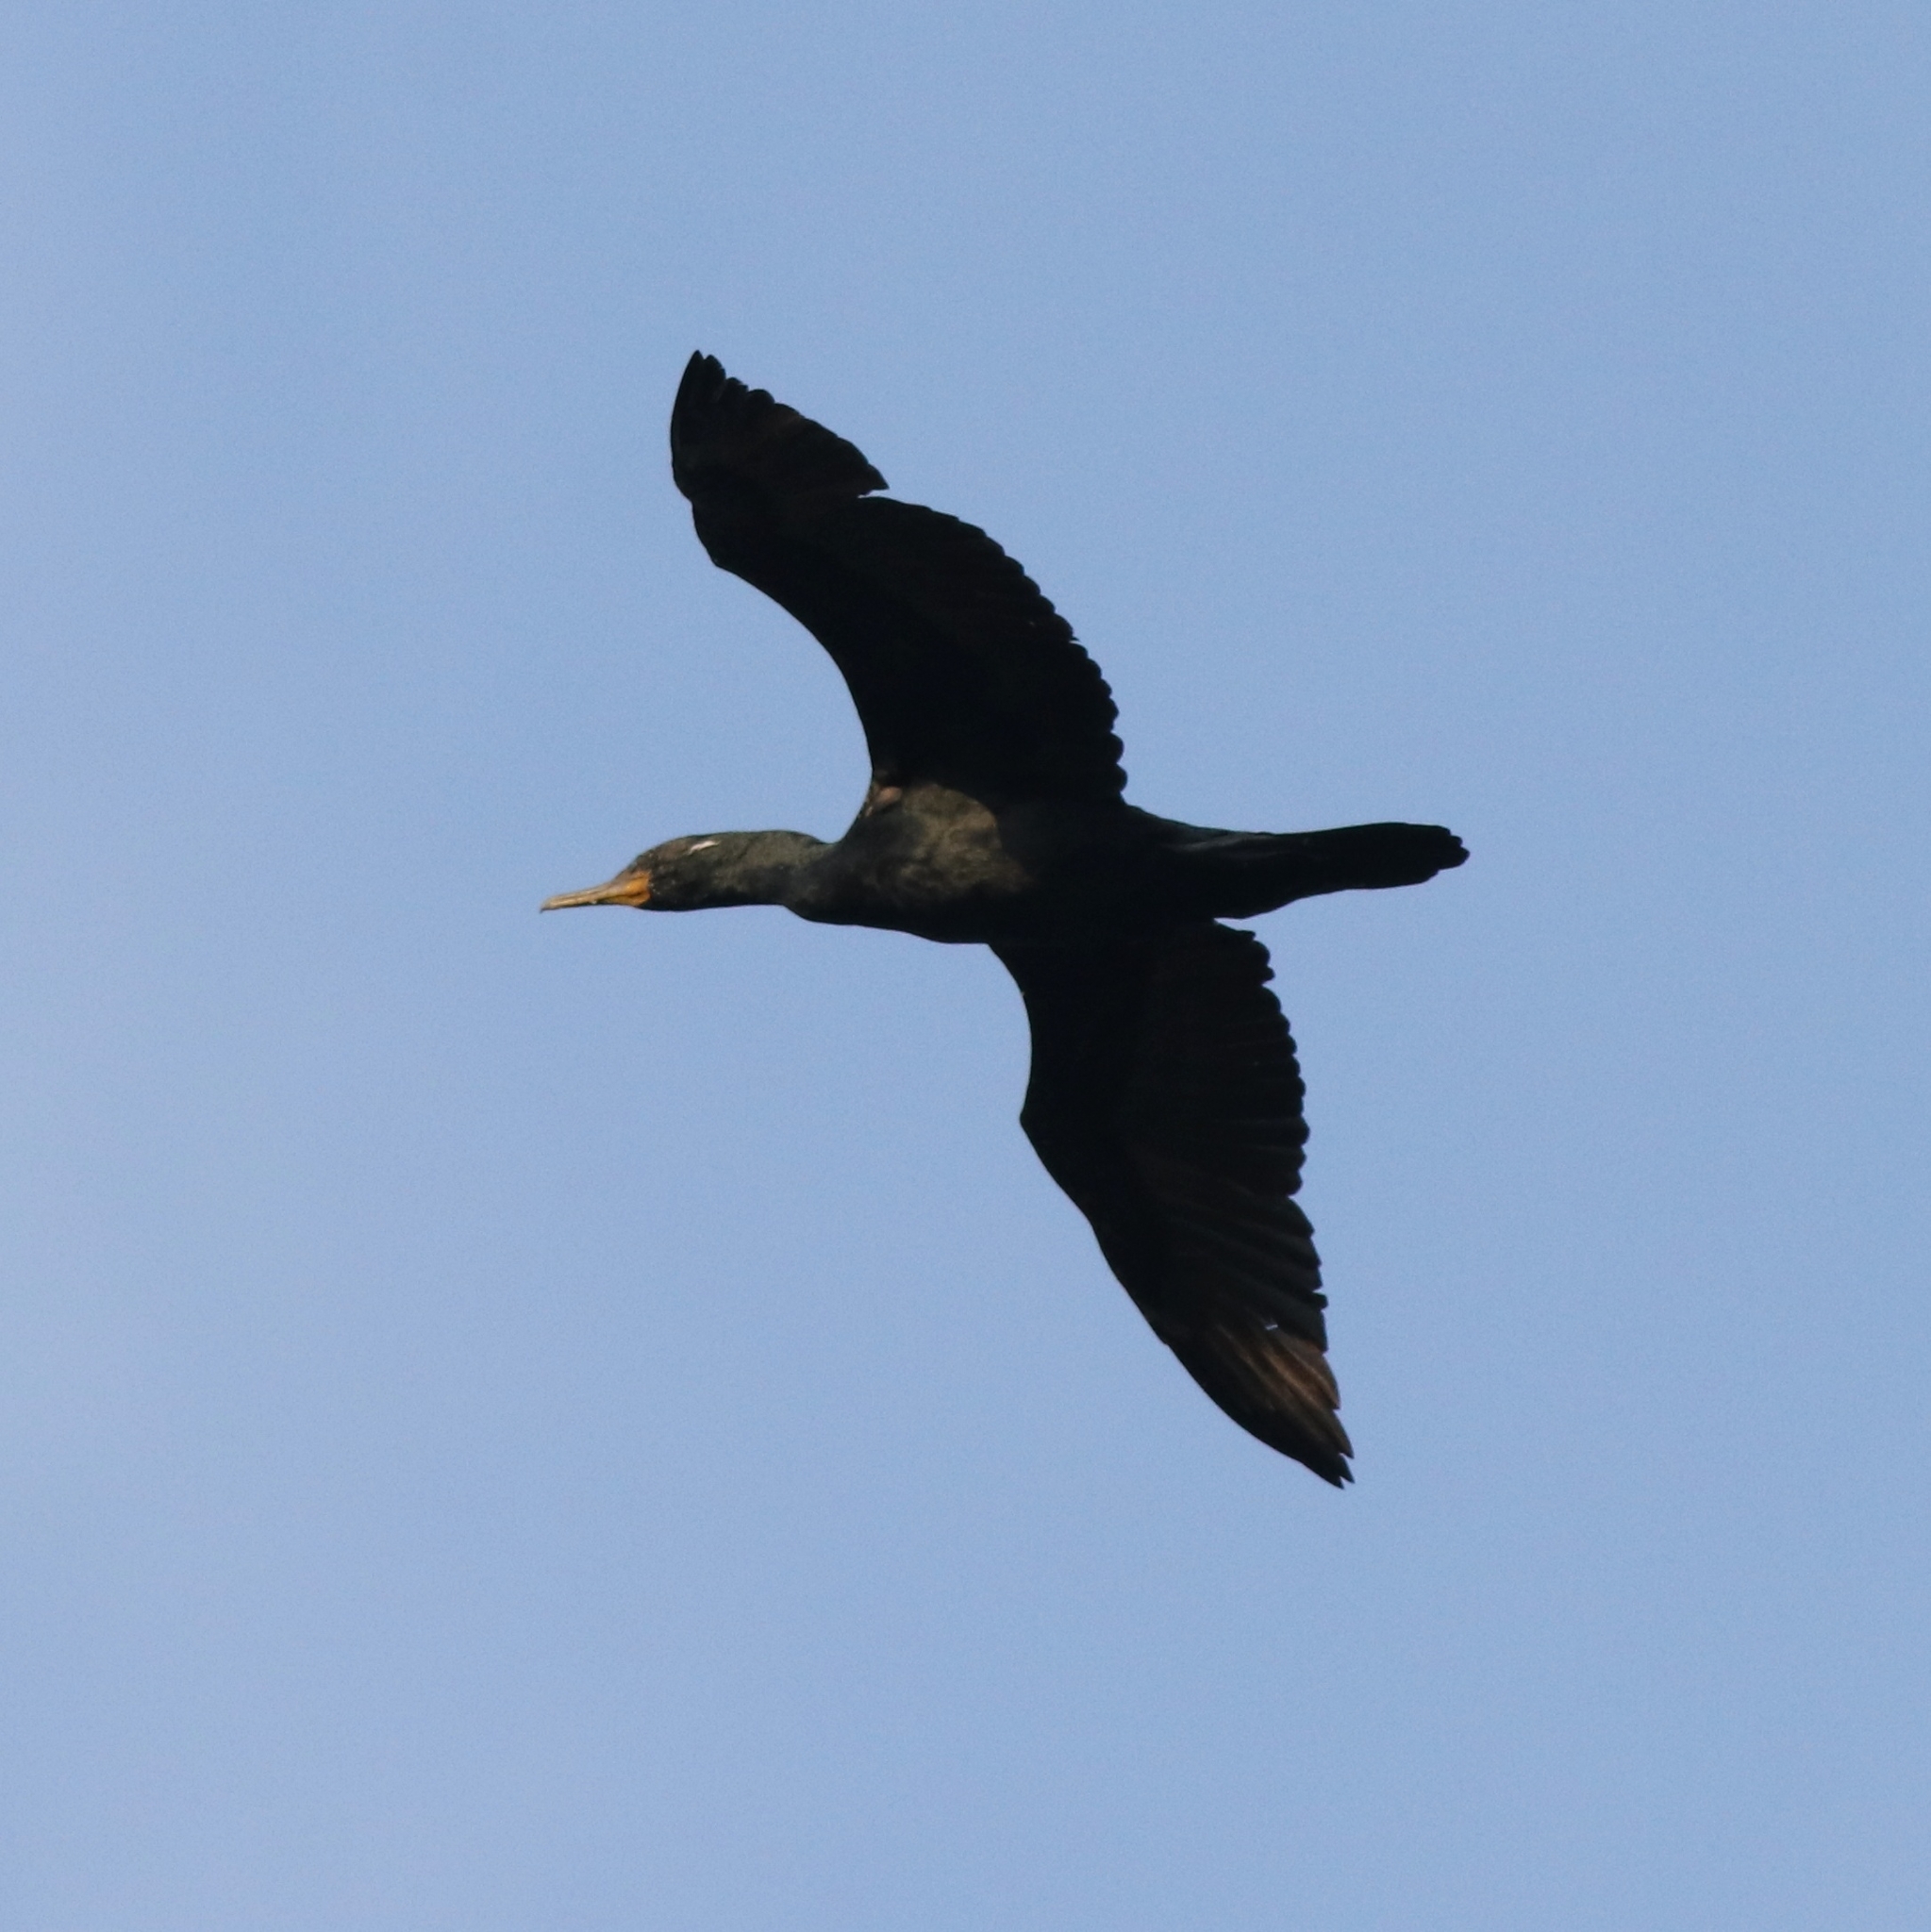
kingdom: Animalia
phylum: Chordata
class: Aves
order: Suliformes
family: Phalacrocoracidae
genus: Phalacrocorax
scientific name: Phalacrocorax fuscicollis
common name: Indian cormorant
